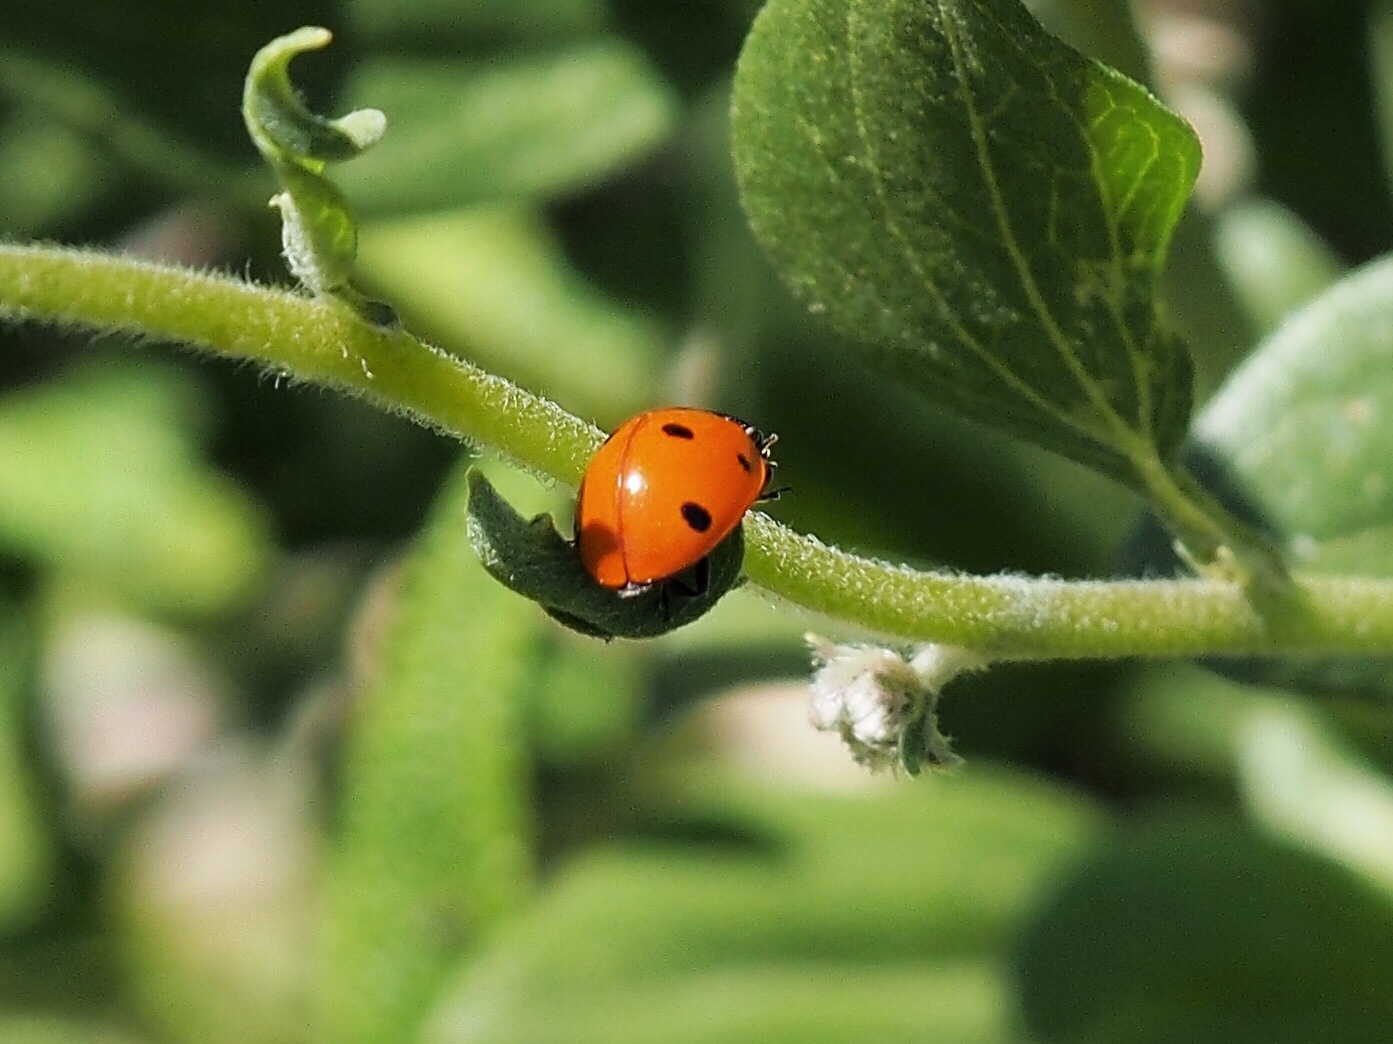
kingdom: Animalia
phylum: Arthropoda
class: Insecta
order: Coleoptera
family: Coccinellidae
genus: Coccinella
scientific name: Coccinella septempunctata
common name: Sevenspotted lady beetle
